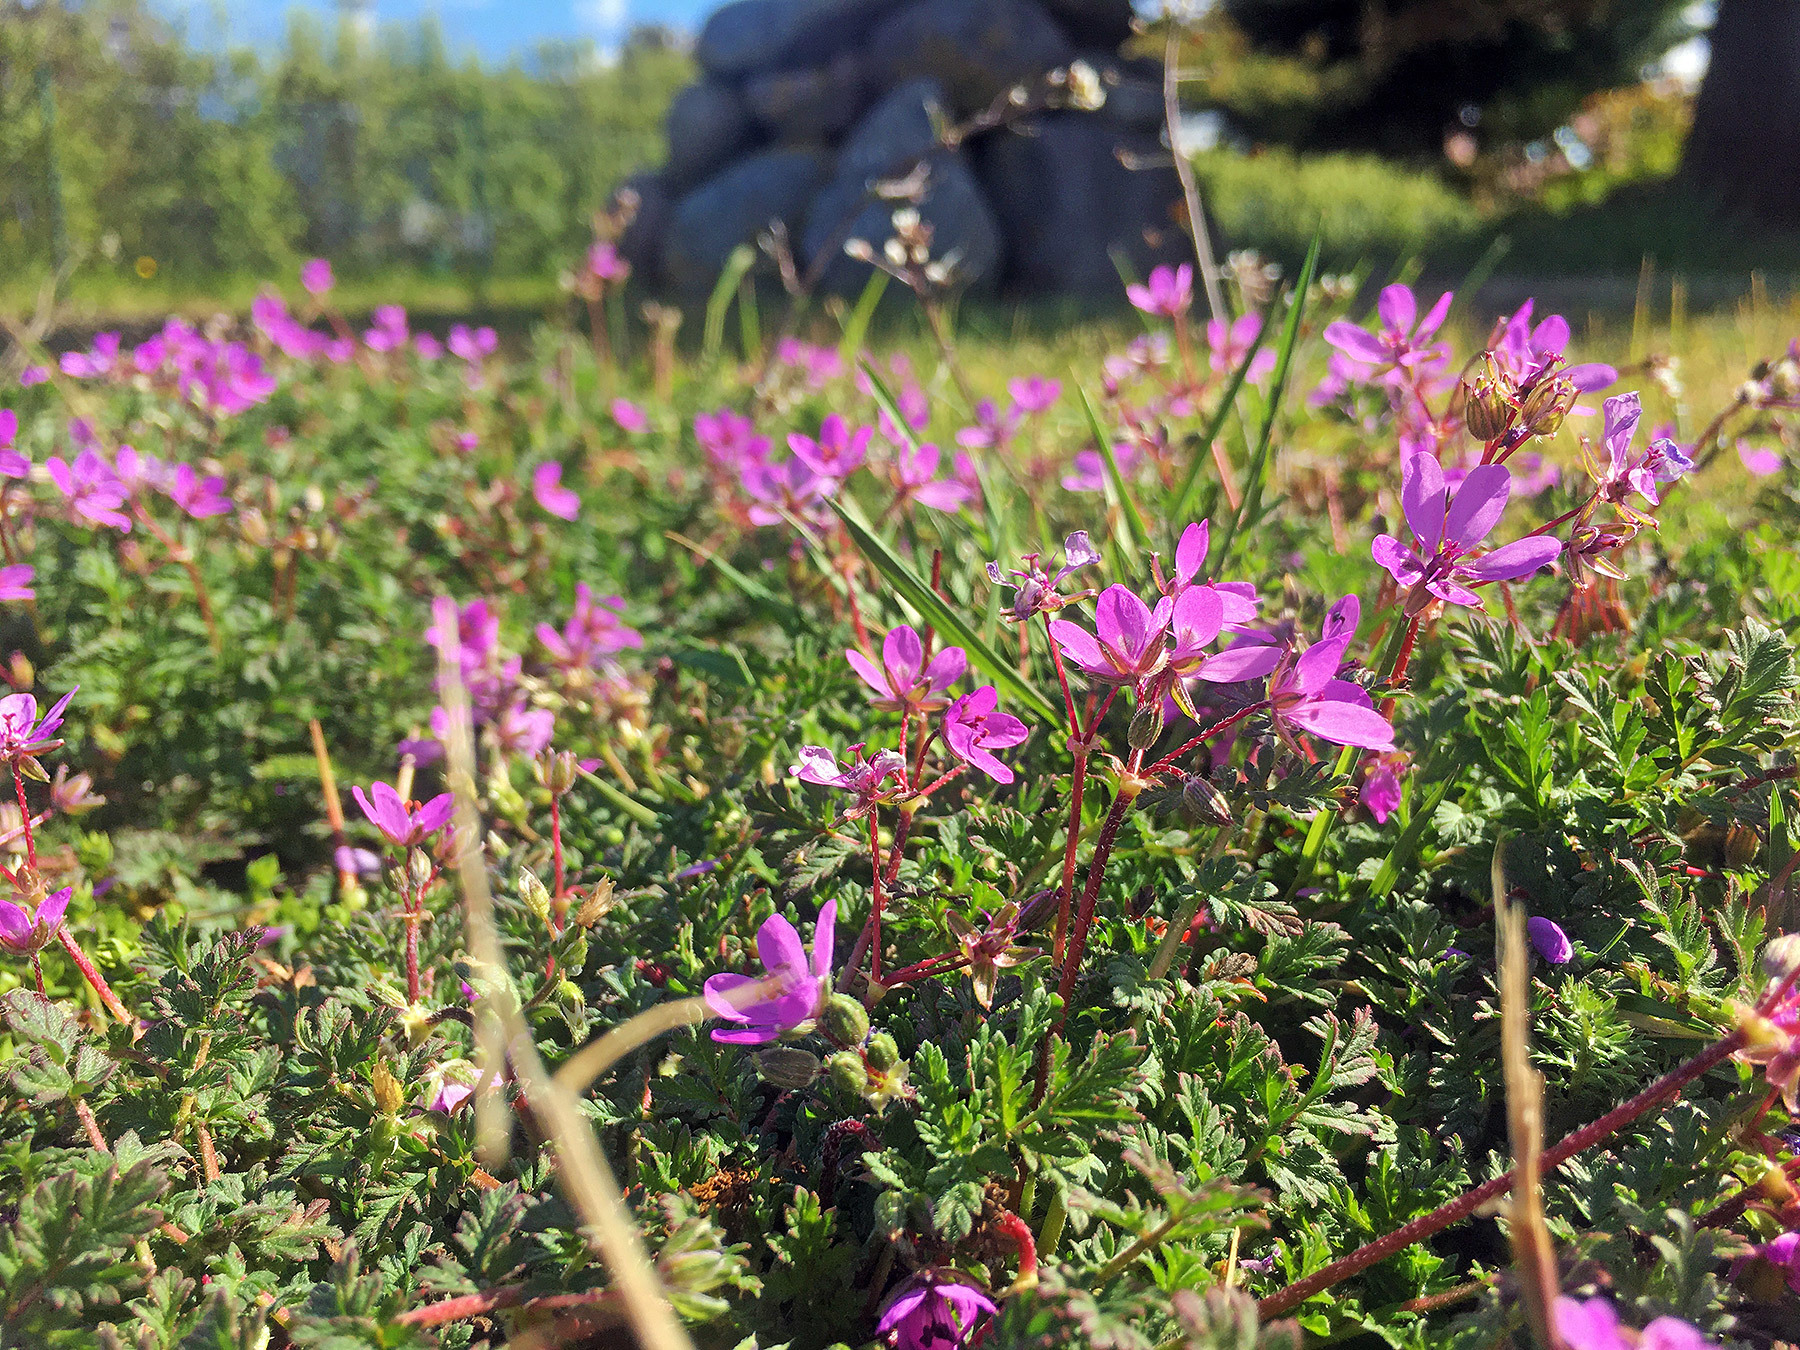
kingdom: Plantae
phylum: Tracheophyta
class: Magnoliopsida
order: Geraniales
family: Geraniaceae
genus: Erodium
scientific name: Erodium cicutarium
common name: Common stork's-bill
